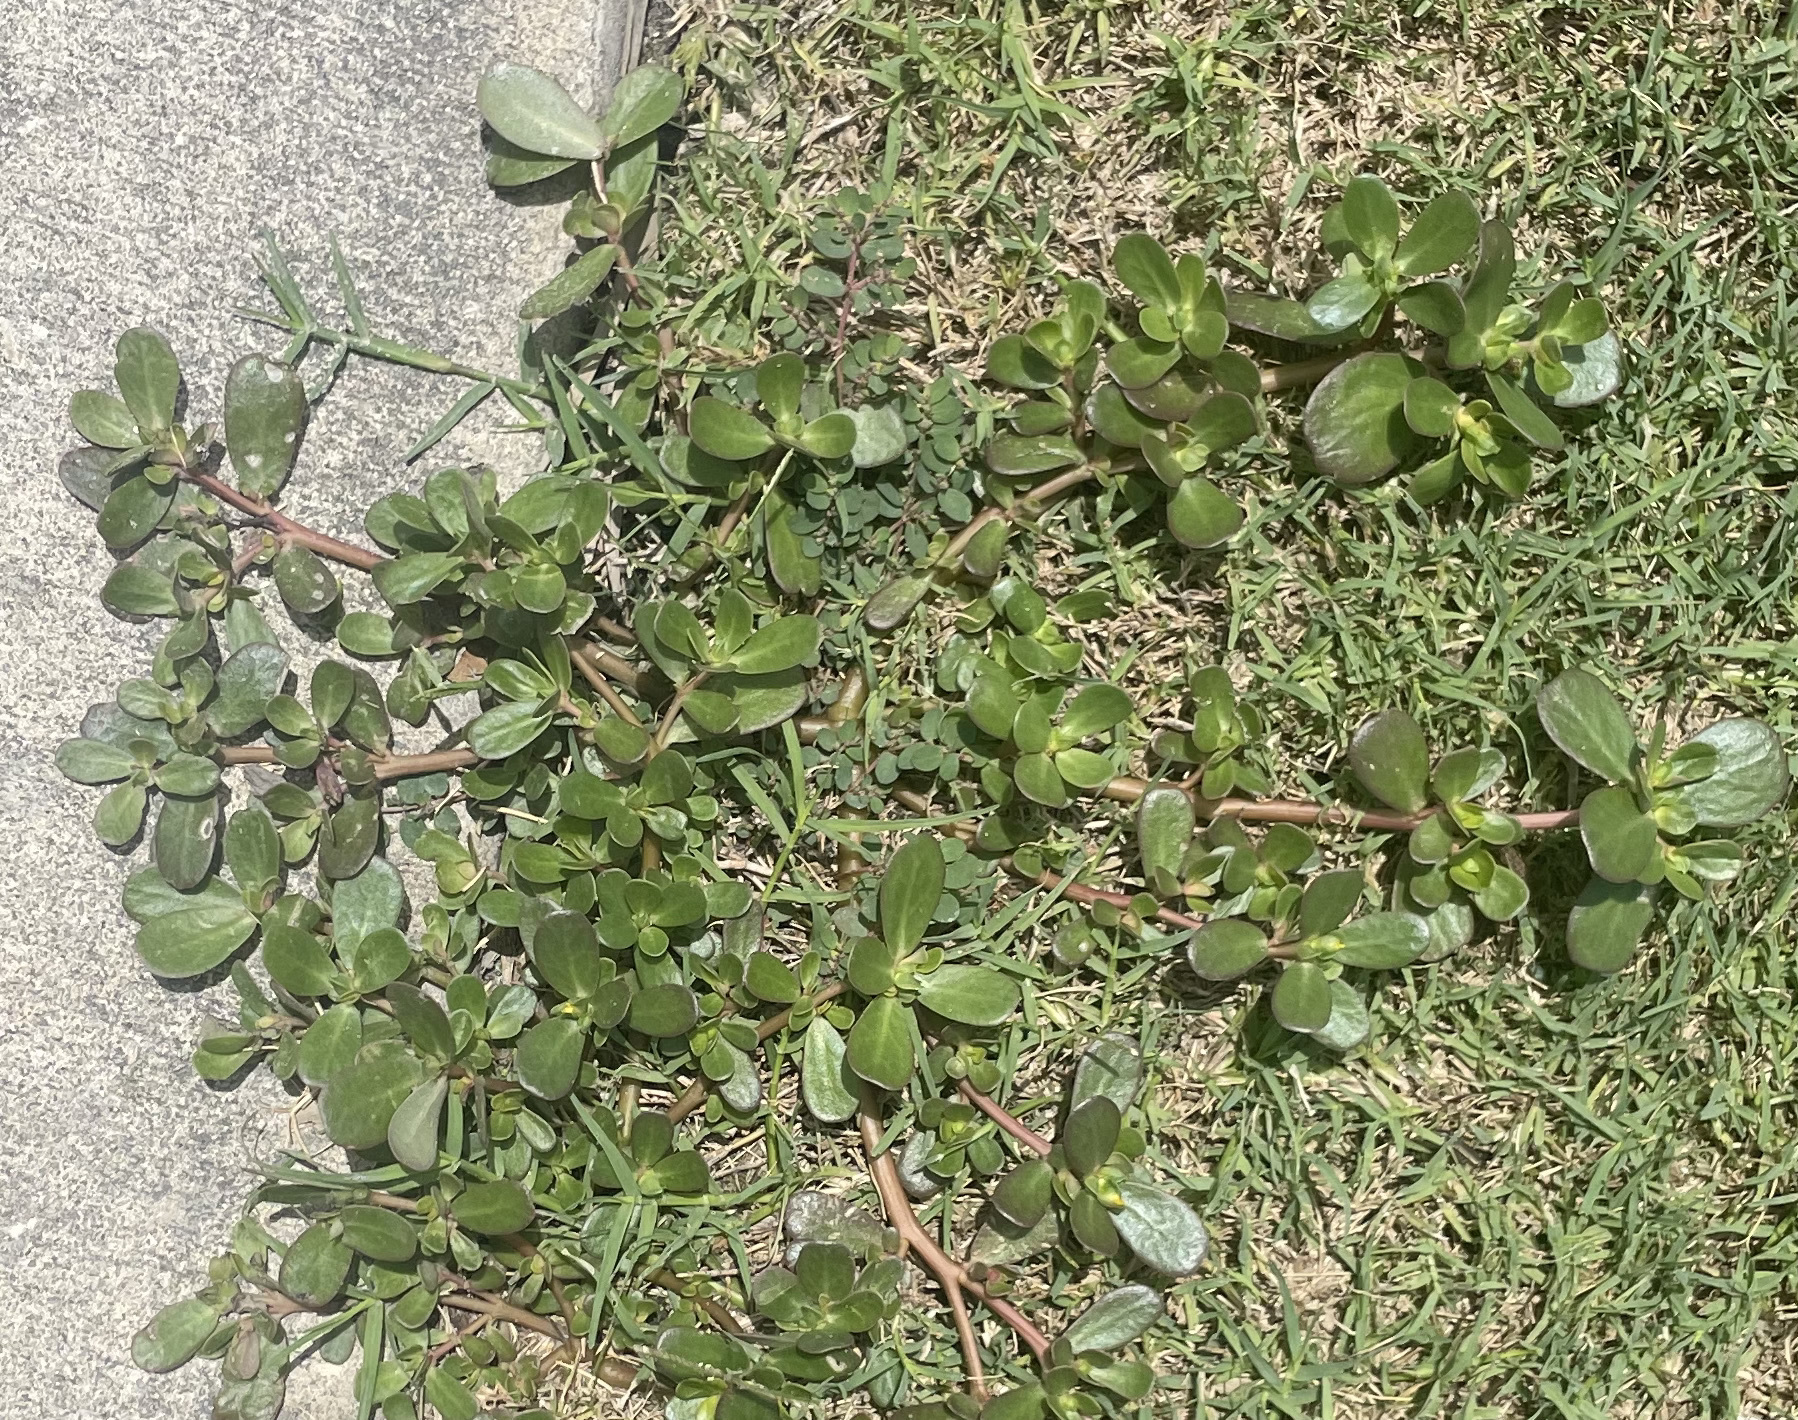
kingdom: Plantae
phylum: Tracheophyta
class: Magnoliopsida
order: Caryophyllales
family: Portulacaceae
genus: Portulaca
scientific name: Portulaca oleracea
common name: Common purslane
